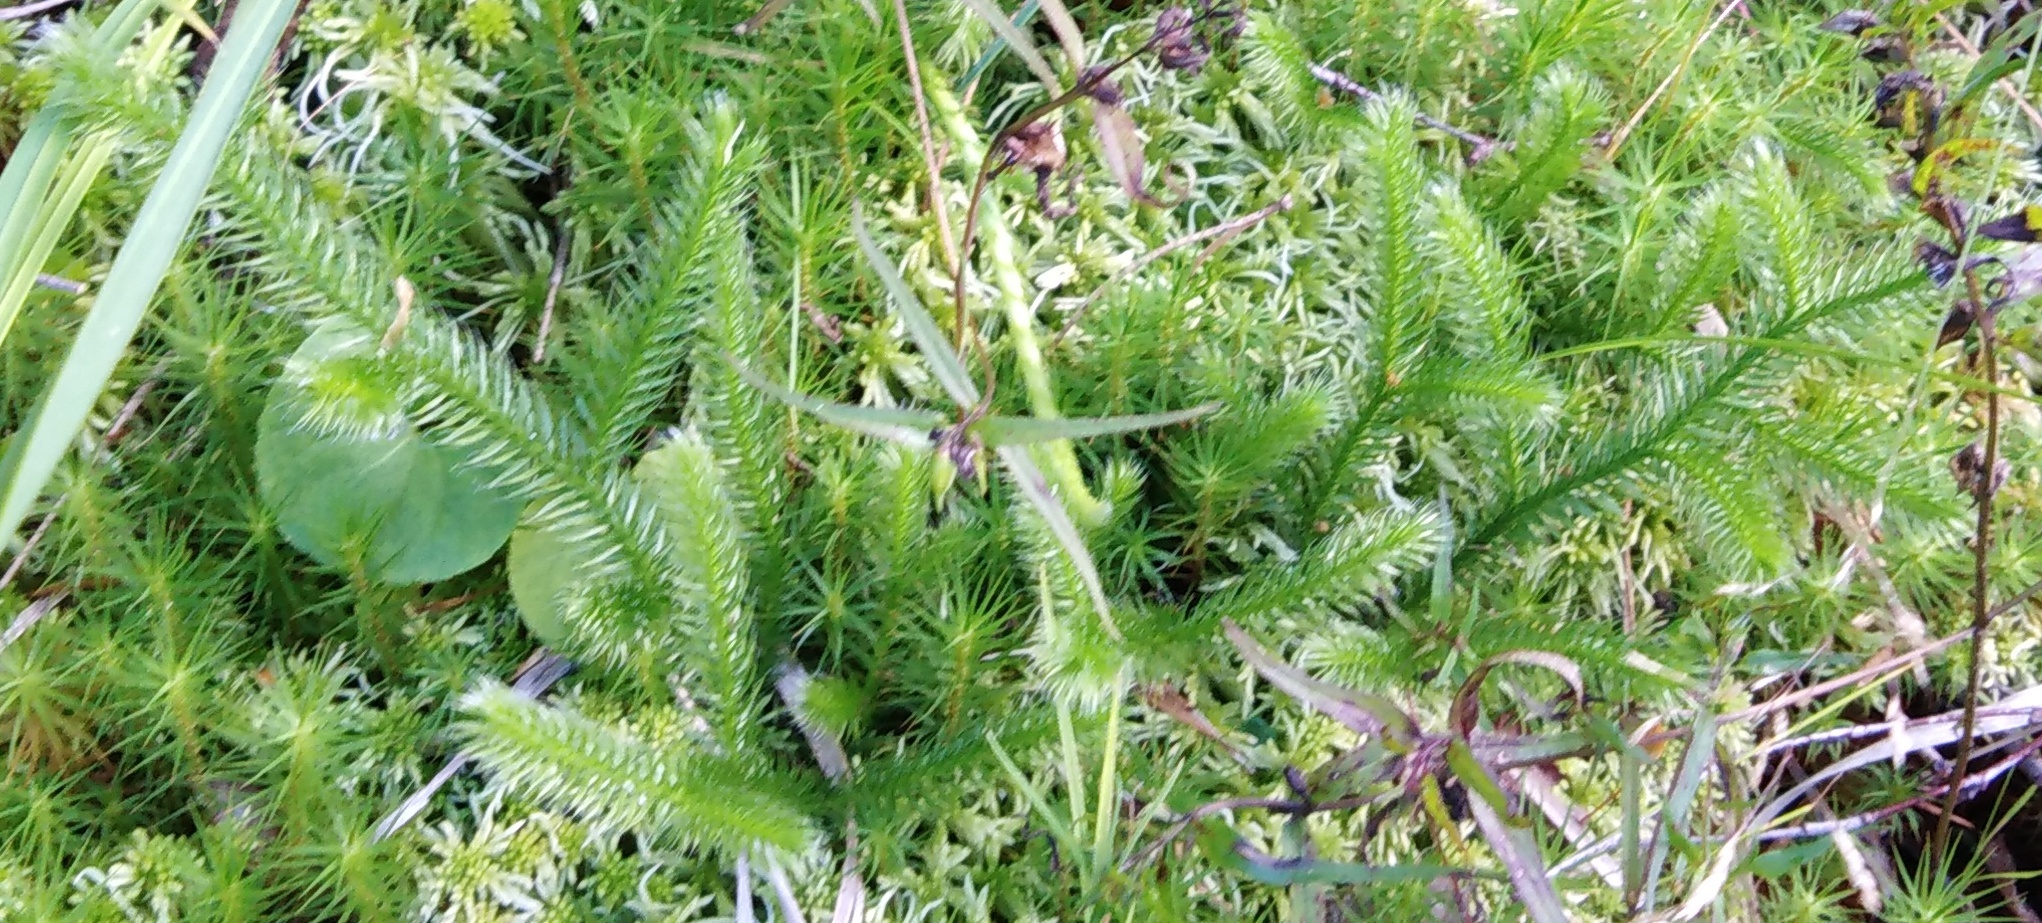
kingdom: Plantae
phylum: Tracheophyta
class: Lycopodiopsida
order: Lycopodiales
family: Lycopodiaceae
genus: Lycopodium
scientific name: Lycopodium clavatum
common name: Stag's-horn clubmoss
